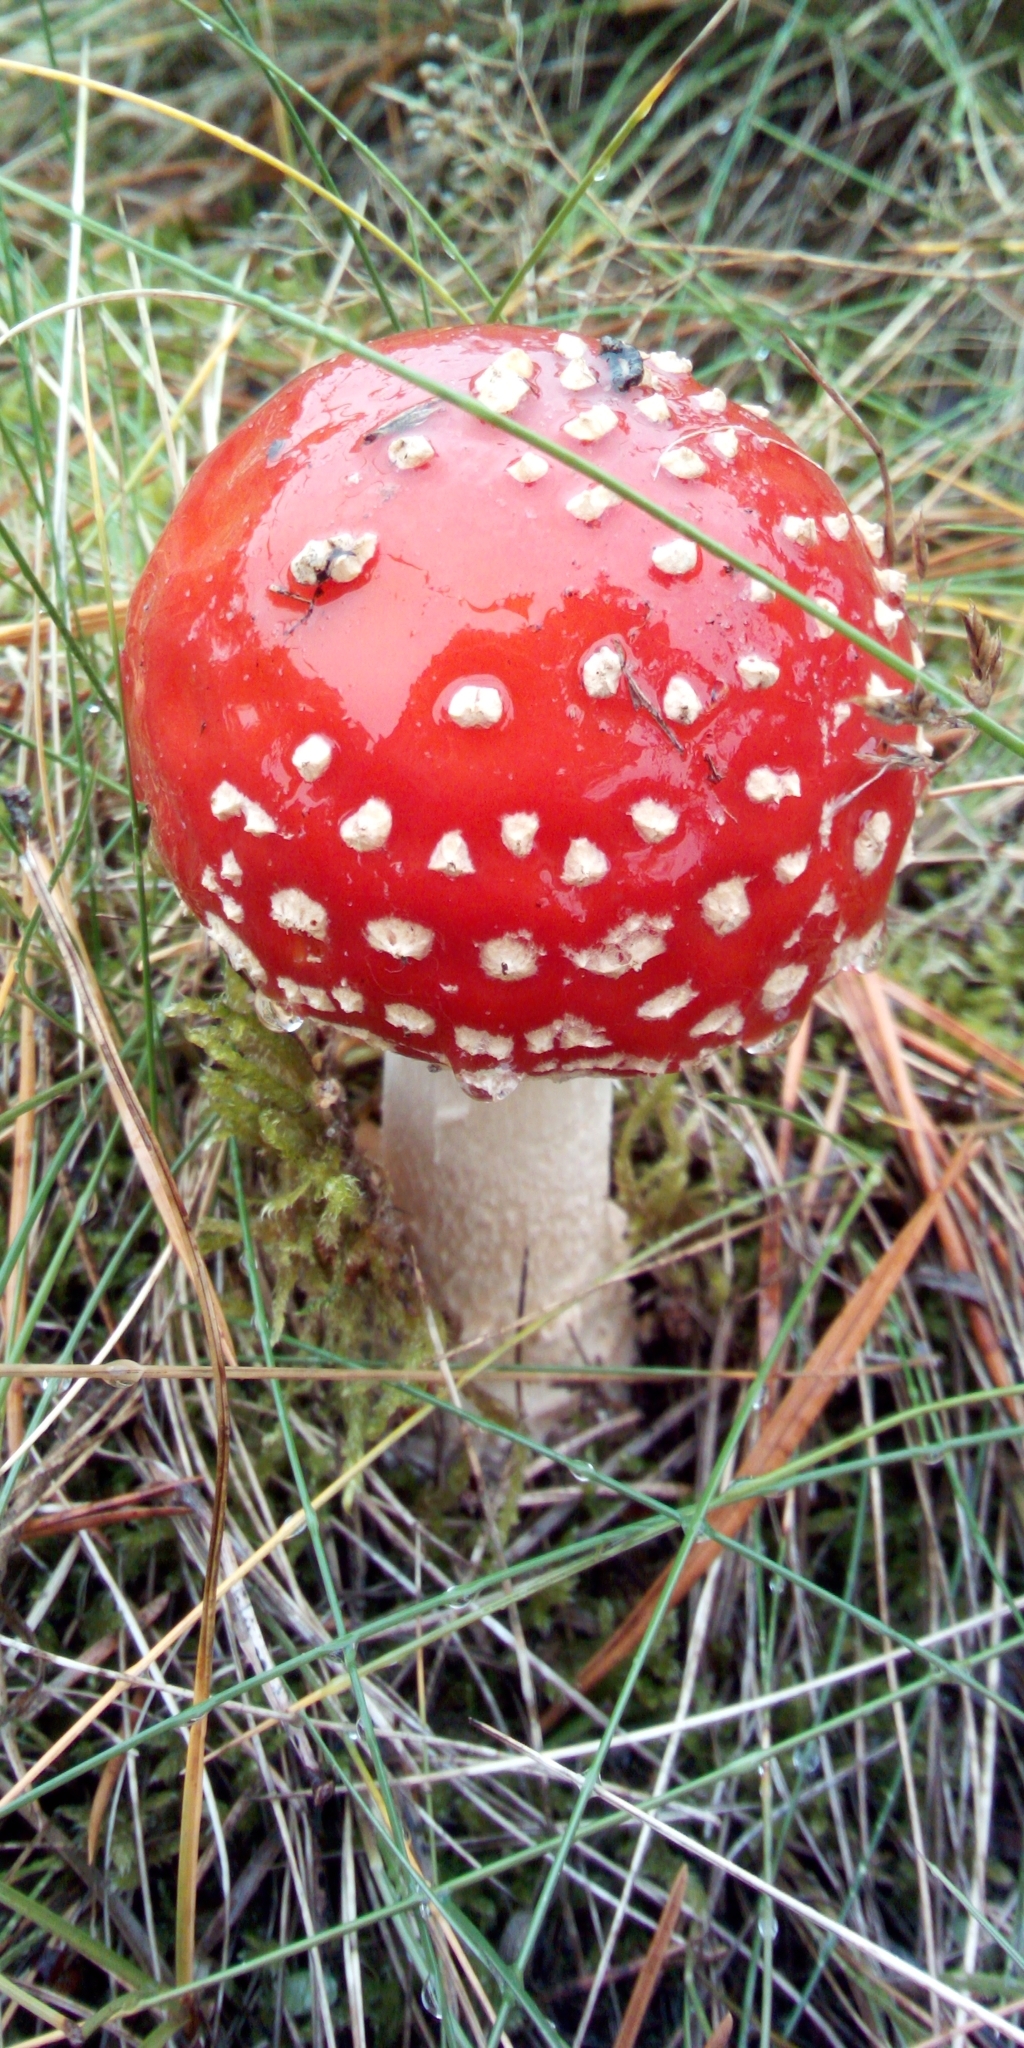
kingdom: Fungi
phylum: Basidiomycota
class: Agaricomycetes
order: Agaricales
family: Amanitaceae
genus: Amanita
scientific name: Amanita muscaria
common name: Fly agaric
